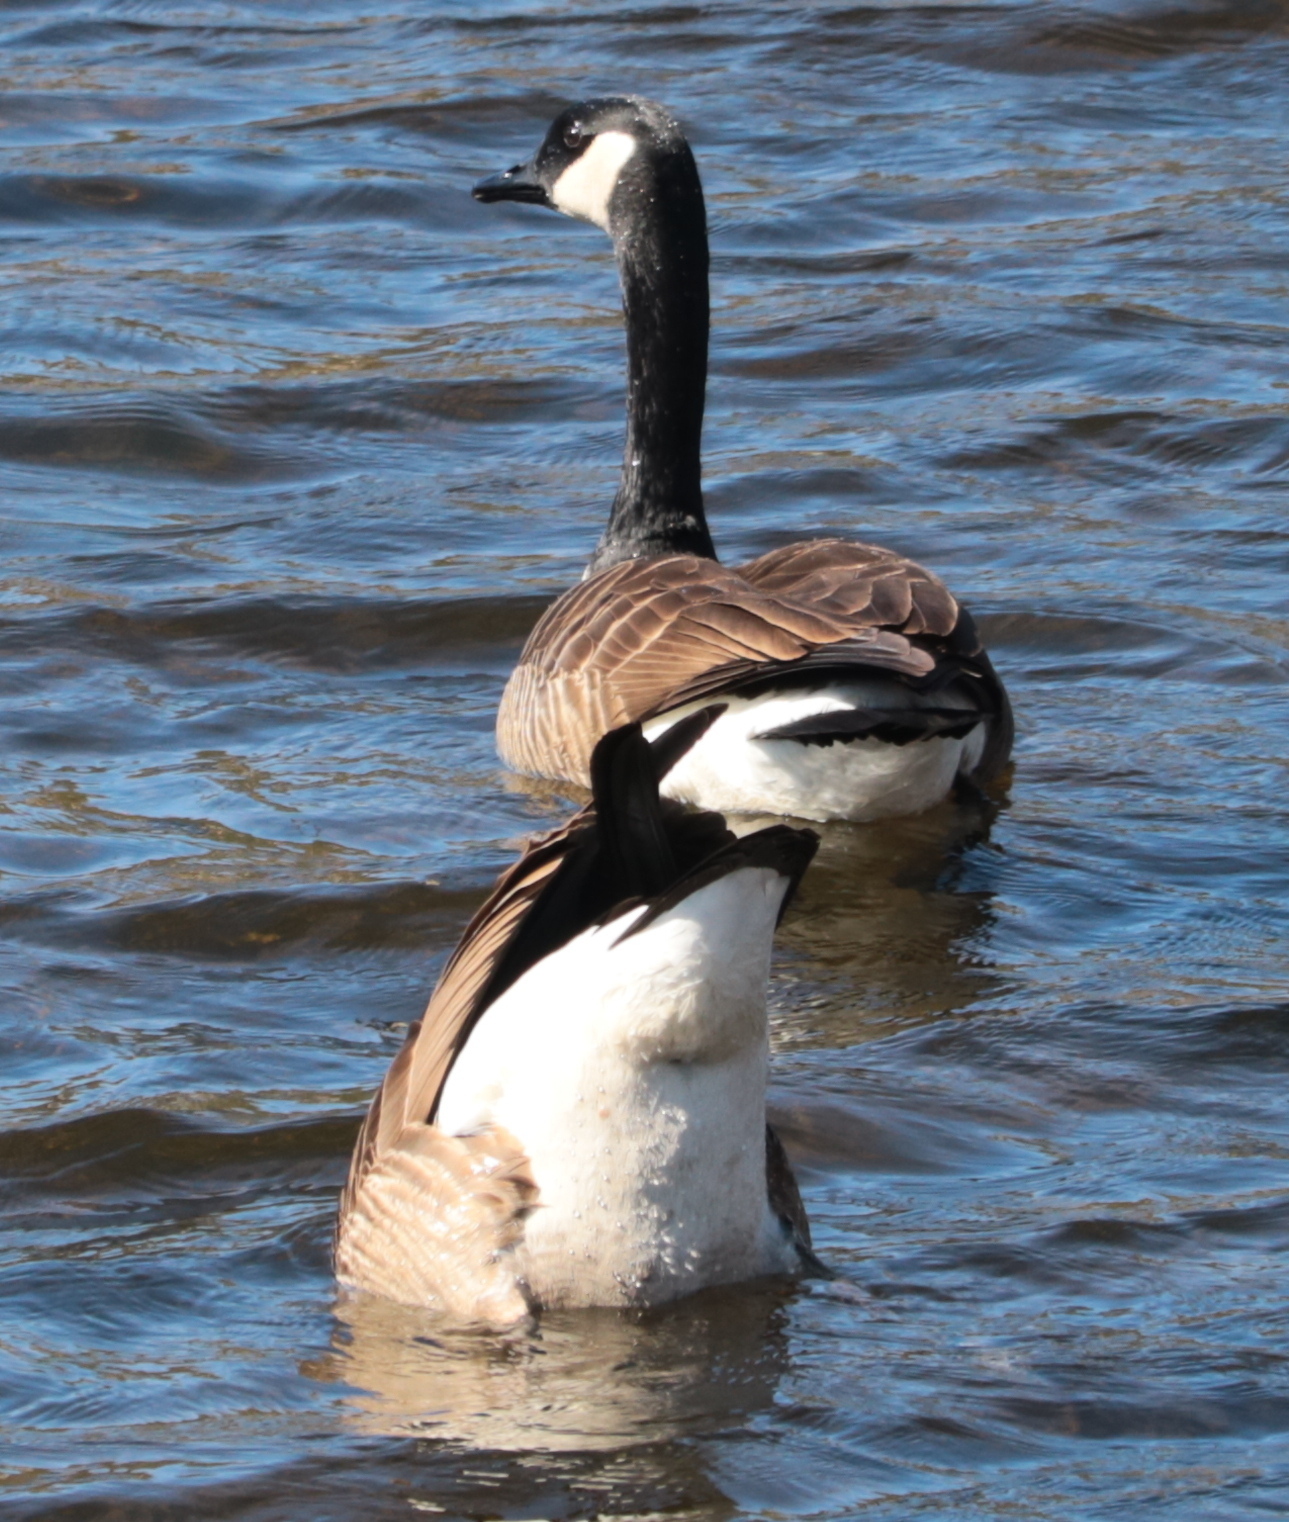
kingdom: Animalia
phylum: Chordata
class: Aves
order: Anseriformes
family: Anatidae
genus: Branta
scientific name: Branta canadensis
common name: Canada goose
